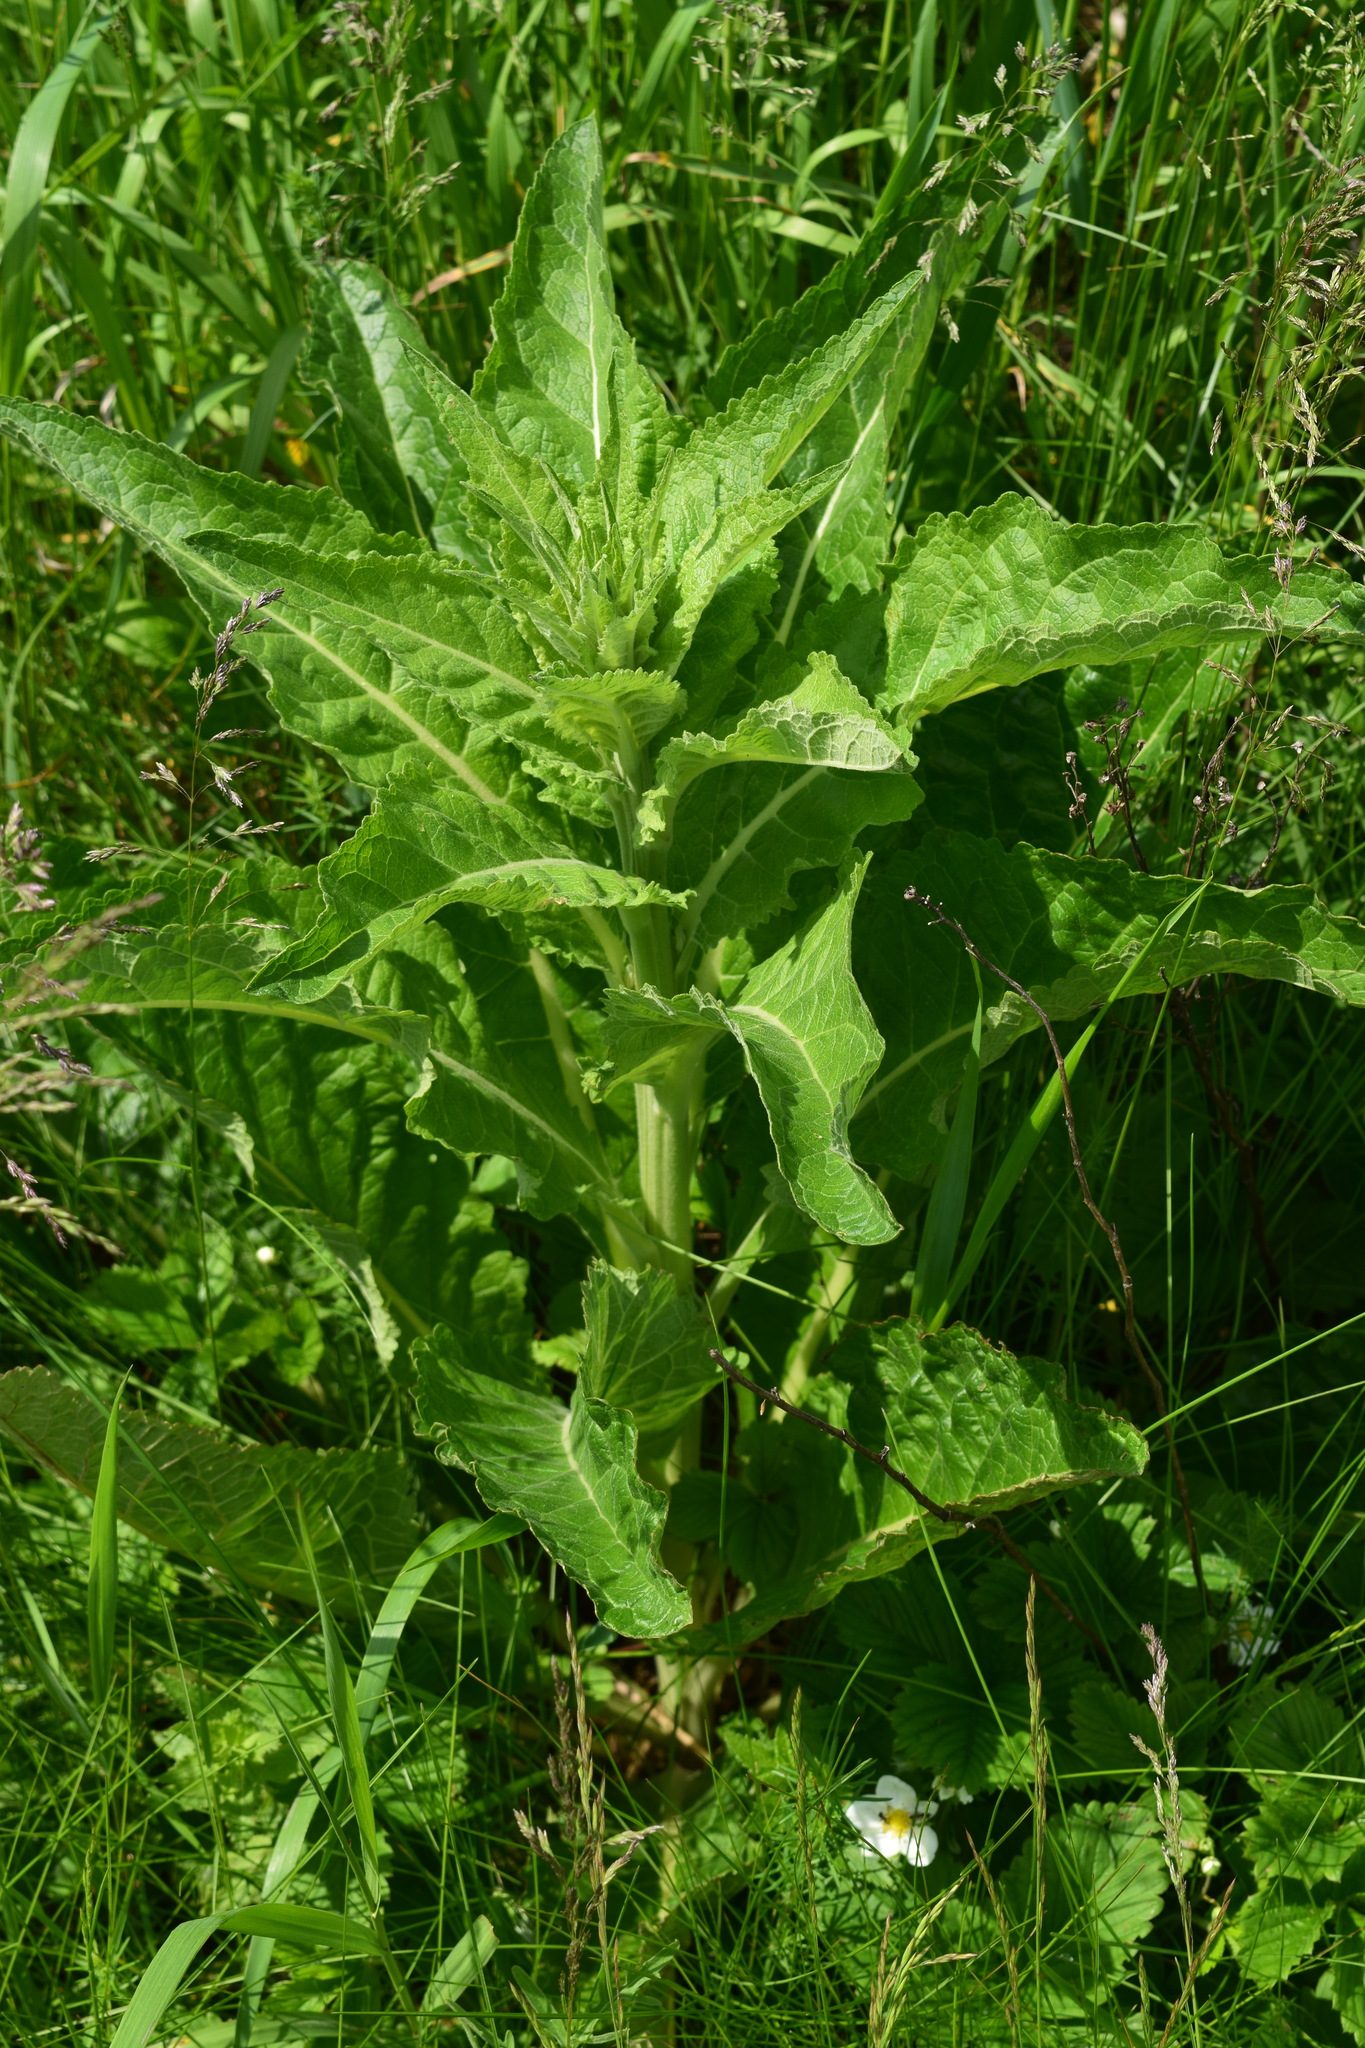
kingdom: Plantae
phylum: Tracheophyta
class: Magnoliopsida
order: Lamiales
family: Scrophulariaceae
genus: Verbascum
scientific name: Verbascum lychnitis
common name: White mullein
